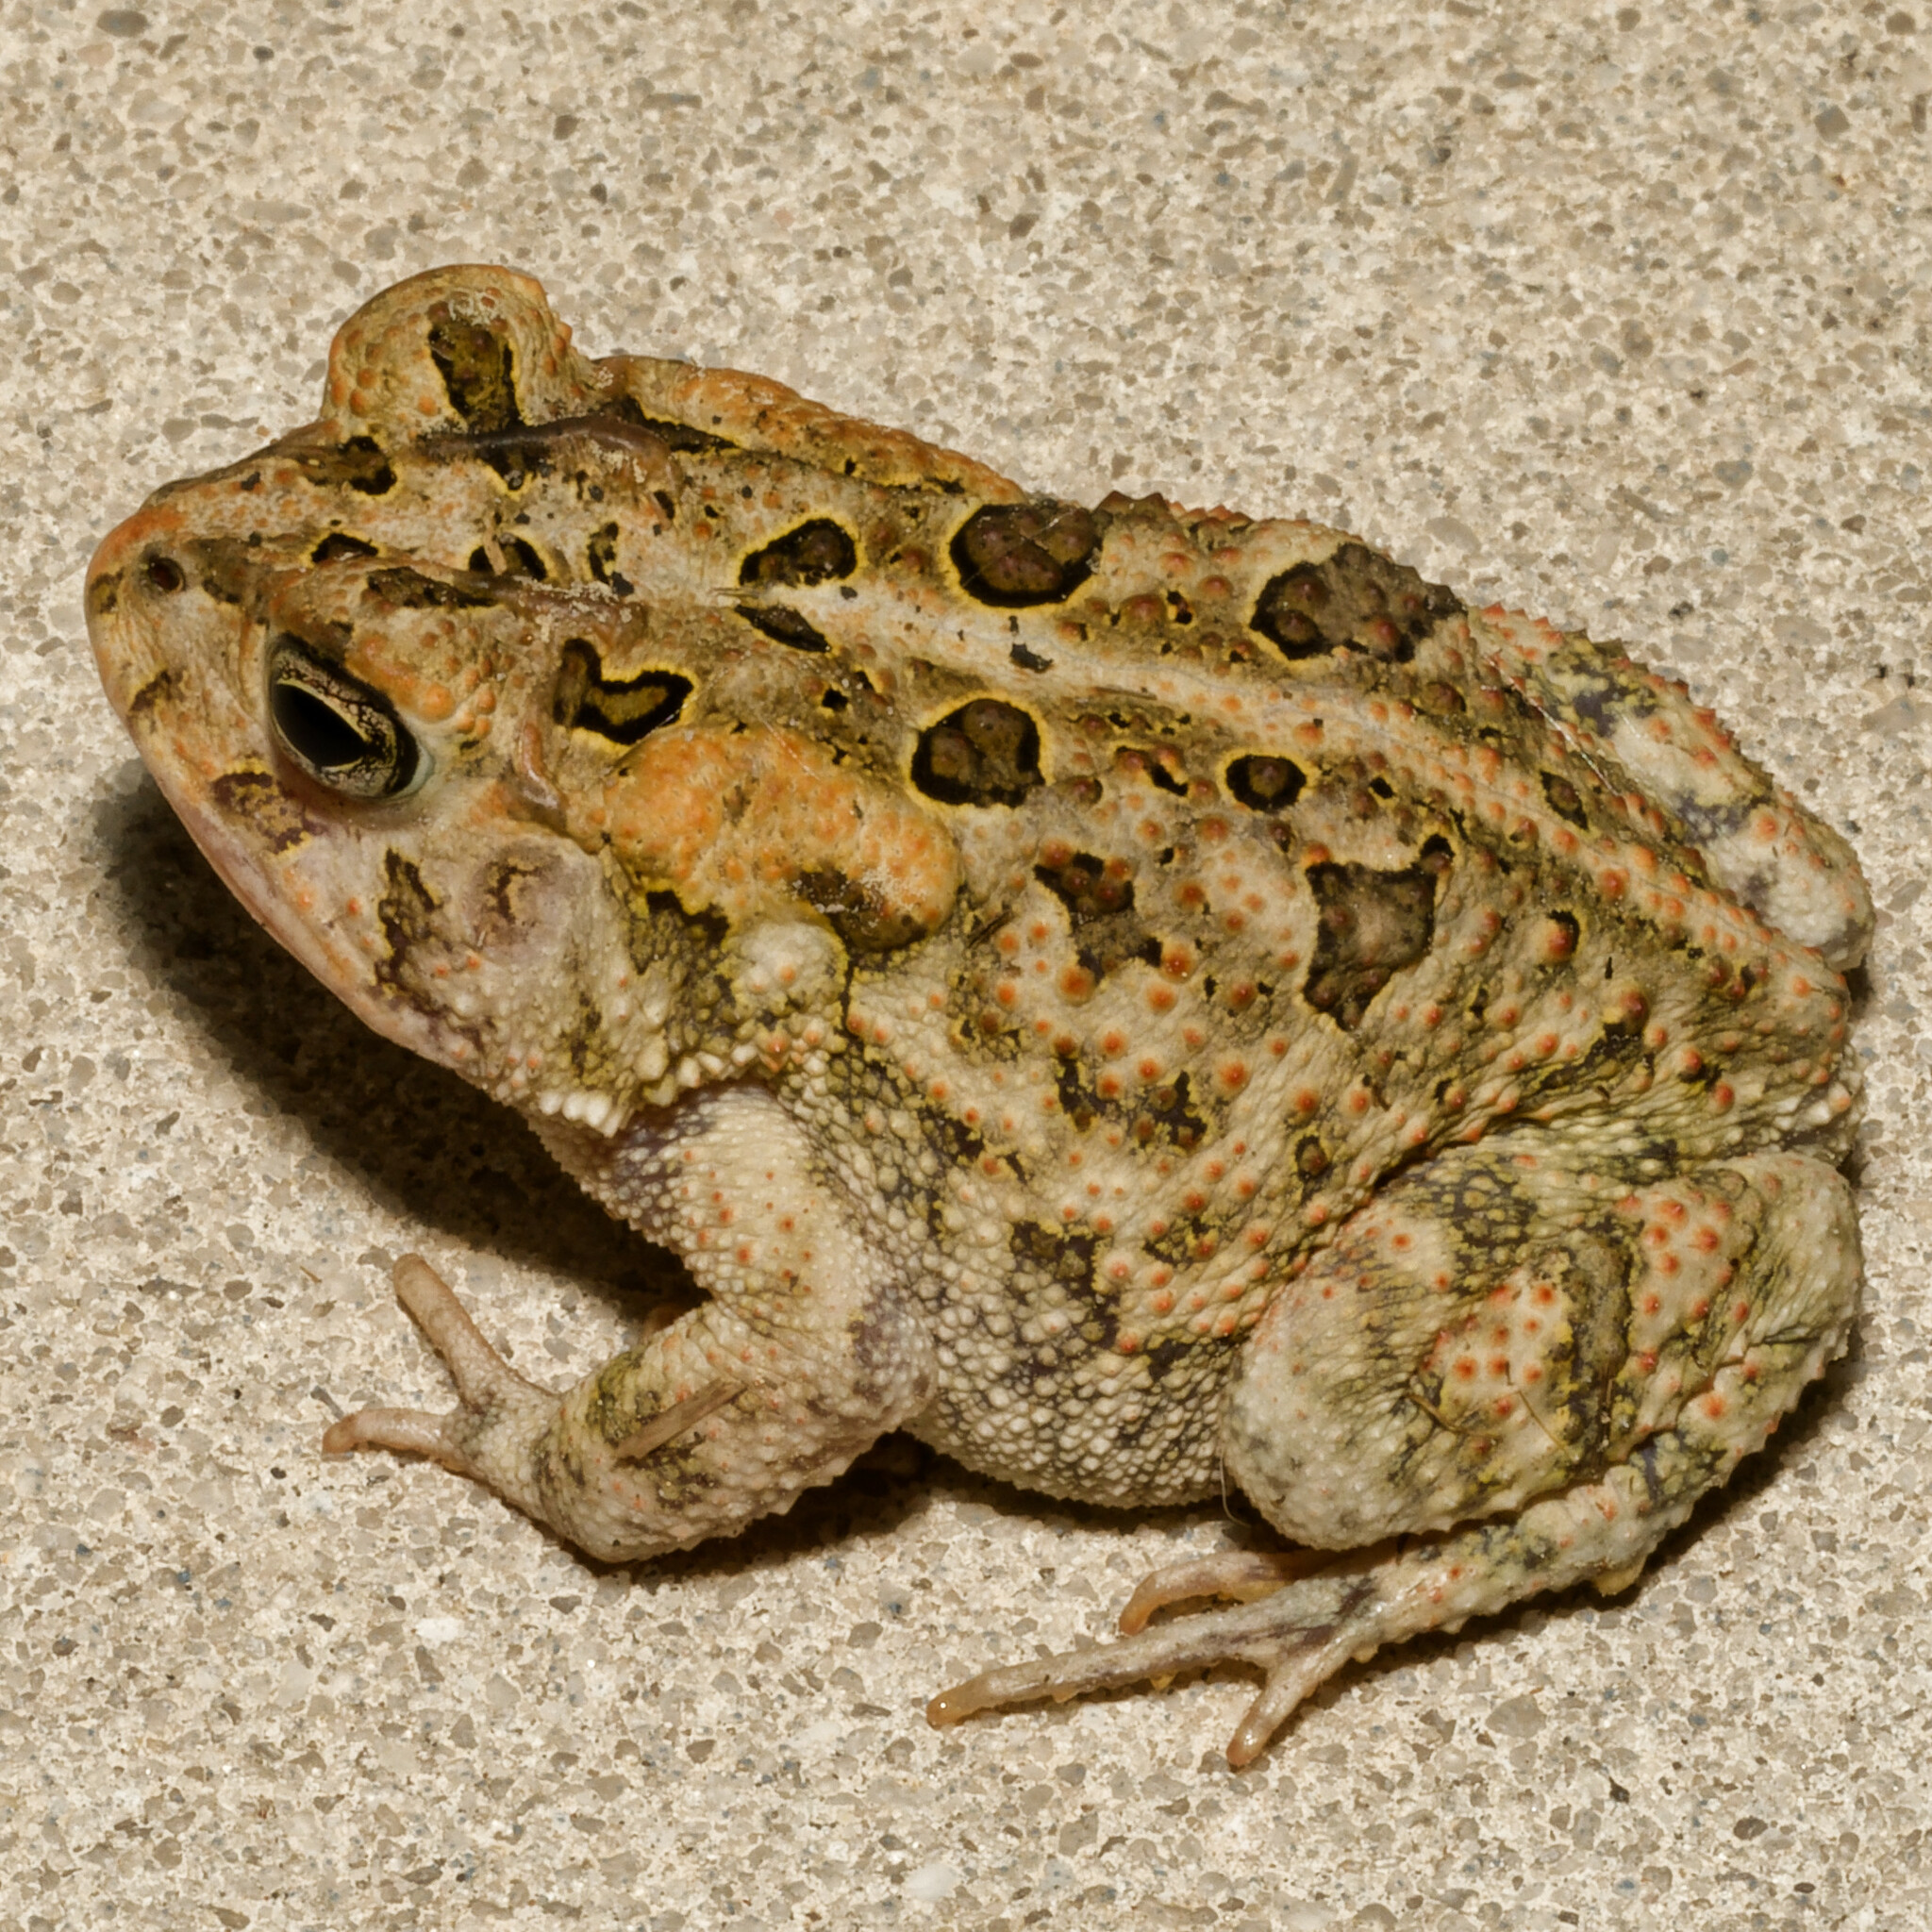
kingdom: Animalia
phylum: Chordata
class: Amphibia
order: Anura
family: Bufonidae
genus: Anaxyrus
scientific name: Anaxyrus terrestris
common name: Southern toad
